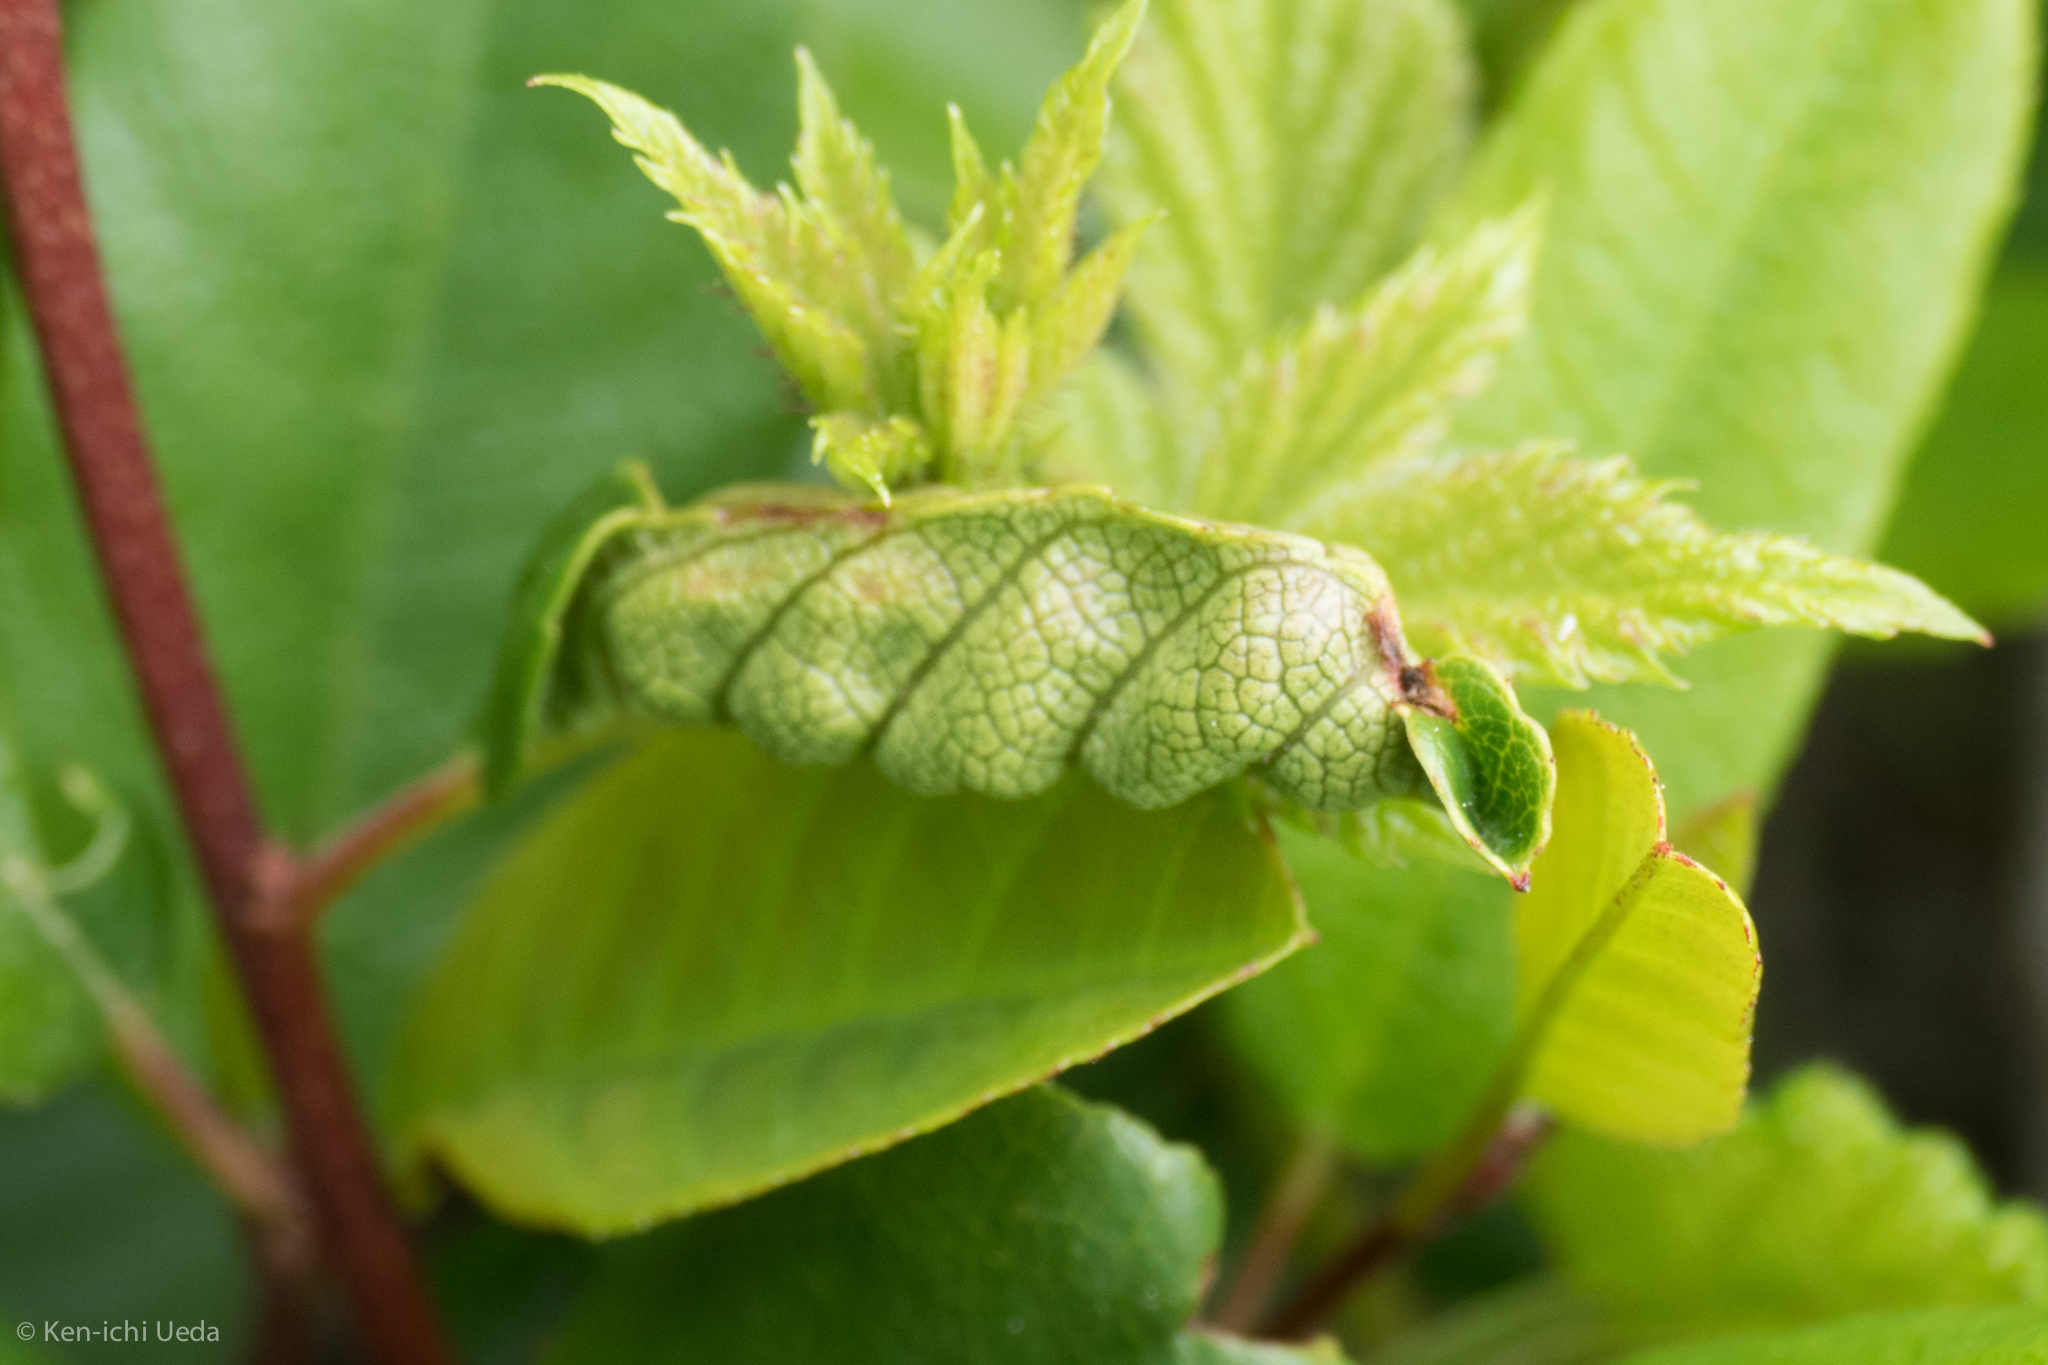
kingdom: Animalia
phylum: Arthropoda
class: Insecta
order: Lepidoptera
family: Cosmopterigidae
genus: Sorhagenia
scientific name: Sorhagenia nimbosus
